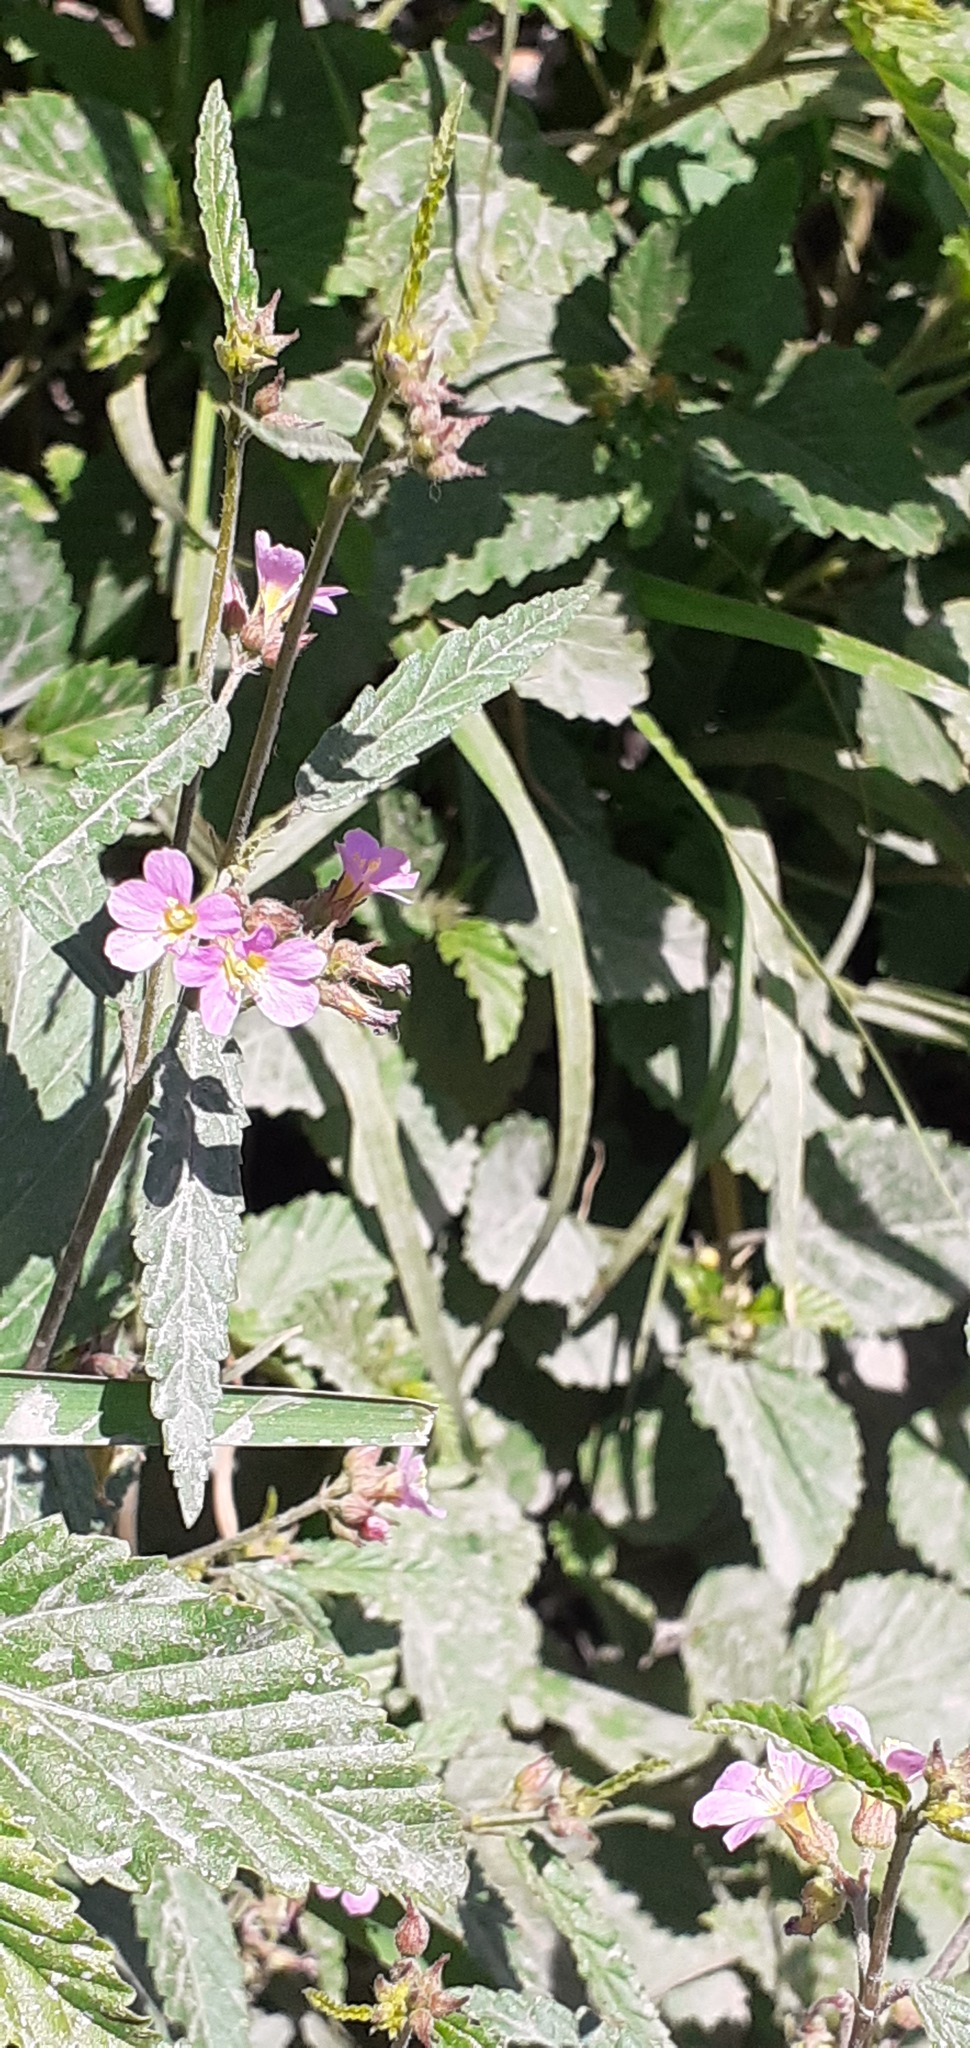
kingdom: Plantae
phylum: Tracheophyta
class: Magnoliopsida
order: Malvales
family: Malvaceae
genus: Melochia
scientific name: Melochia pyramidata
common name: Pyramidflower
